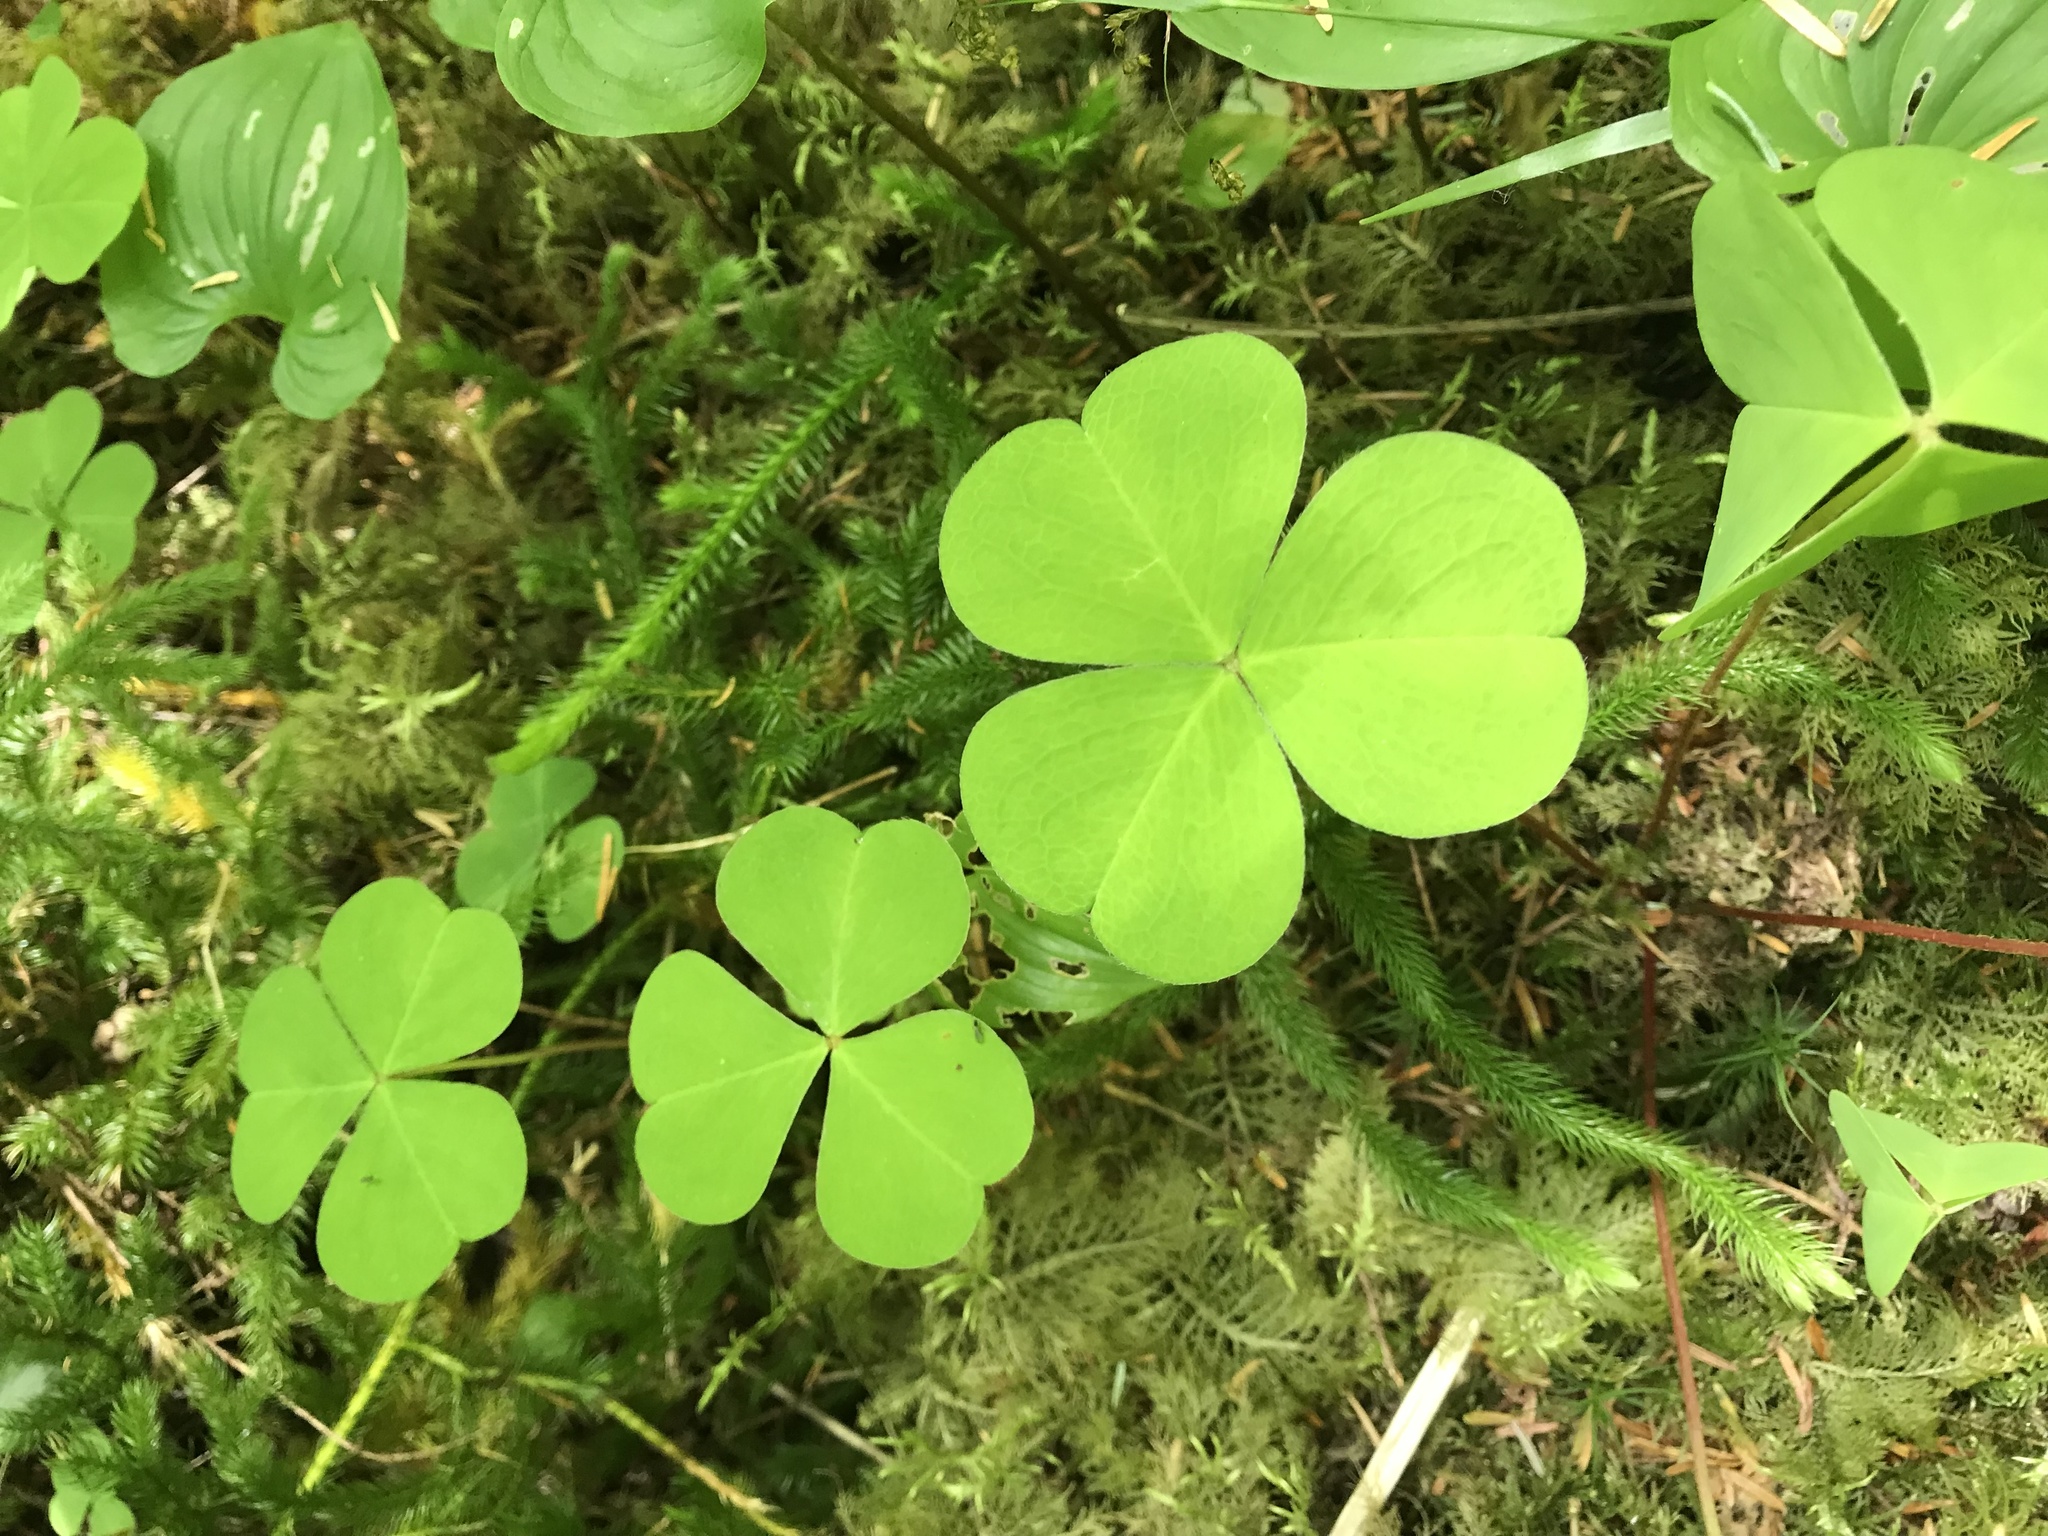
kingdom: Plantae
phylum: Tracheophyta
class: Magnoliopsida
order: Oxalidales
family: Oxalidaceae
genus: Oxalis
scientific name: Oxalis oregana
